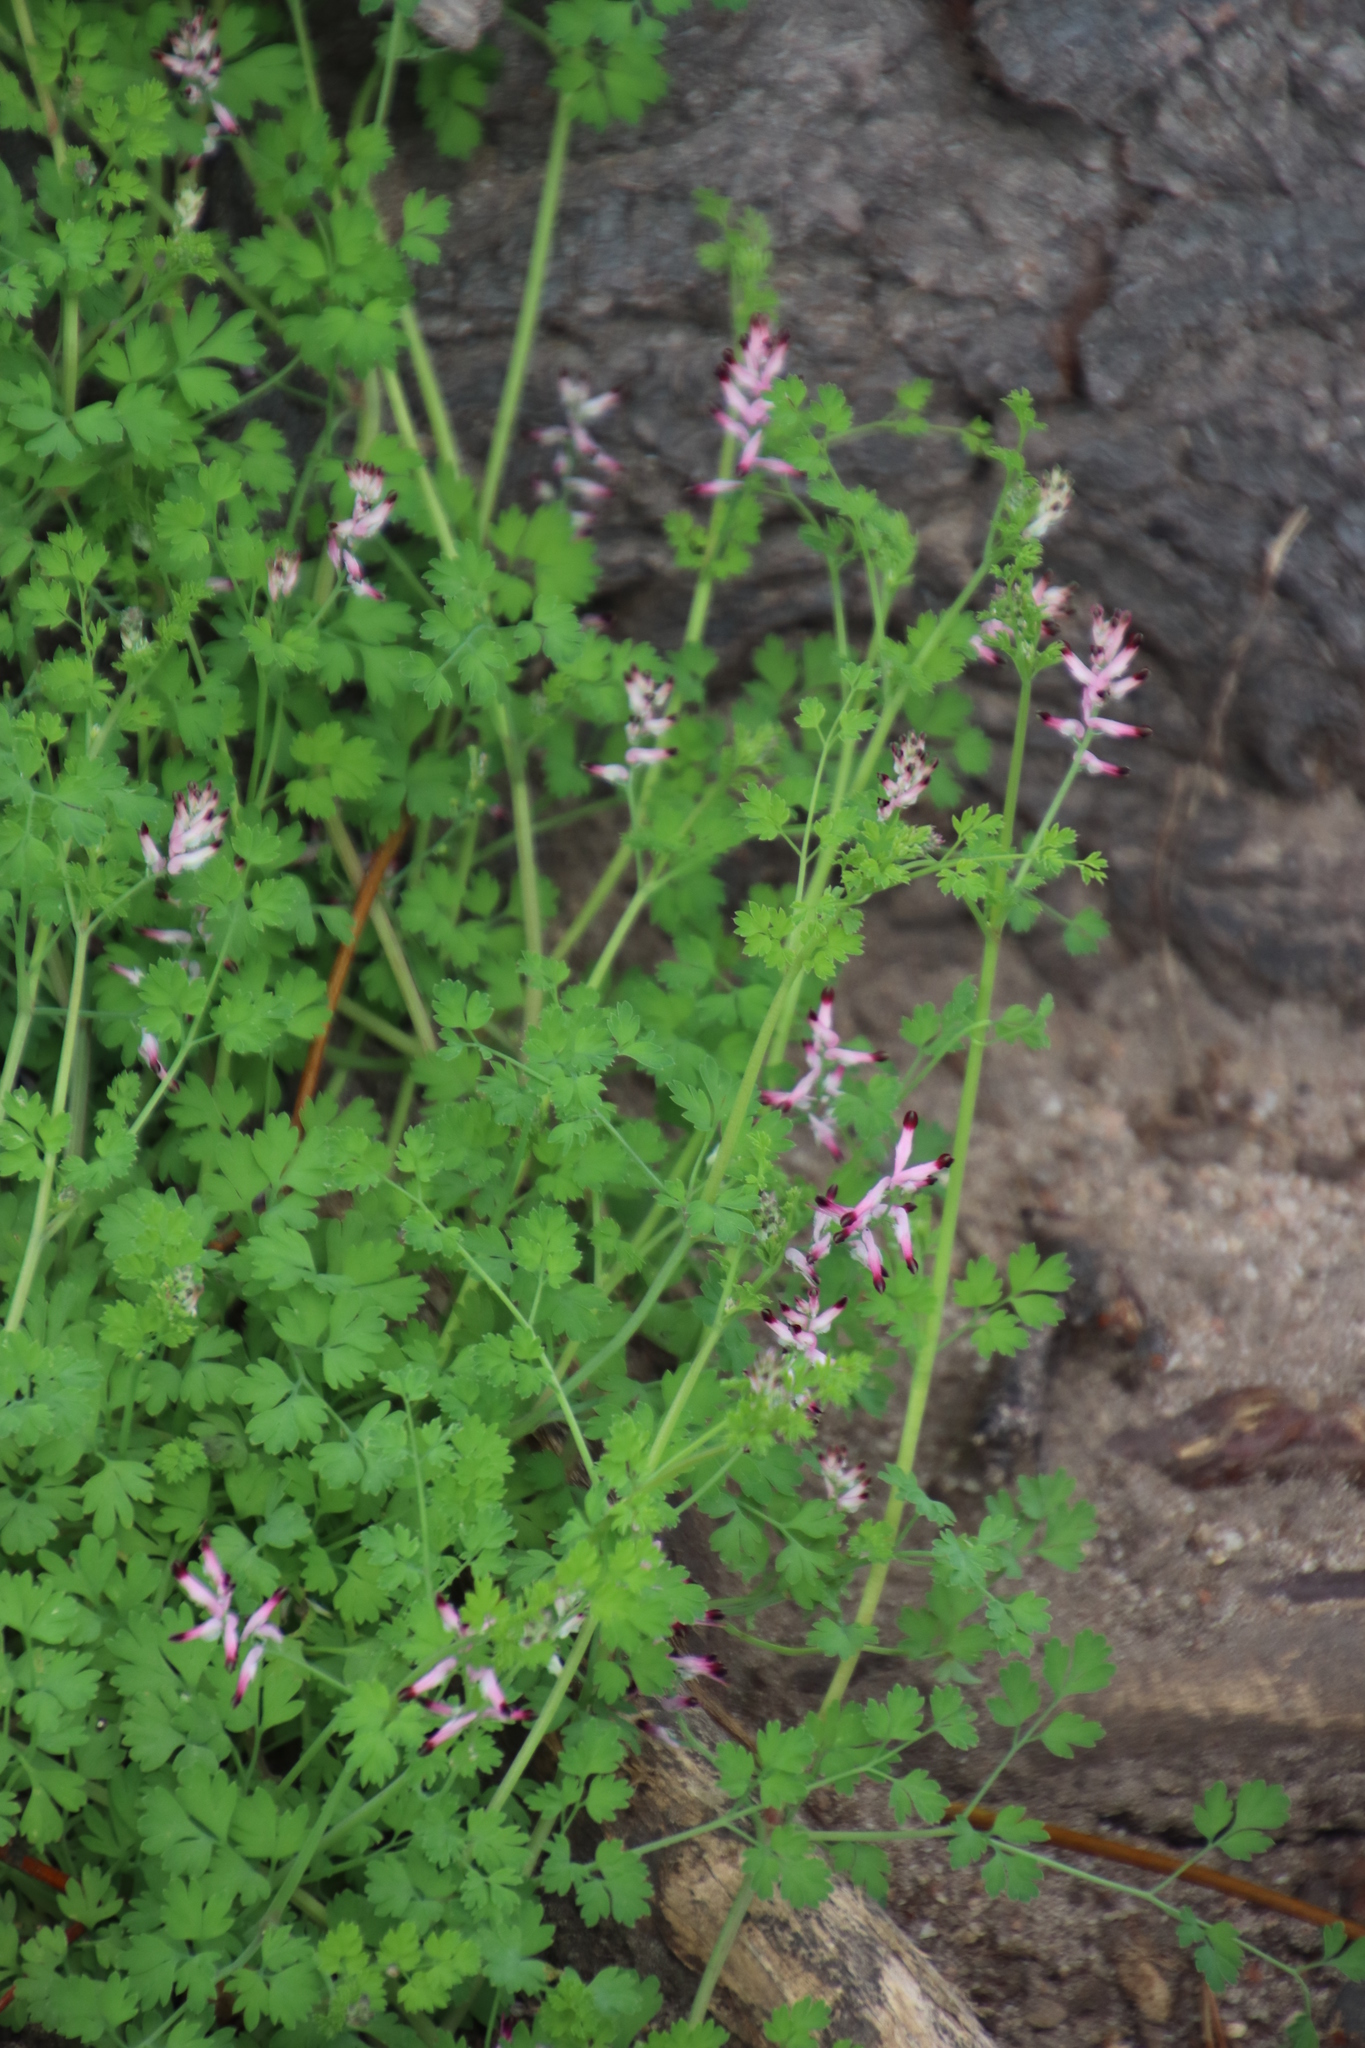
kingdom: Plantae
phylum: Tracheophyta
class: Magnoliopsida
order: Ranunculales
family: Papaveraceae
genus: Fumaria
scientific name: Fumaria muralis
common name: Common ramping-fumitory
